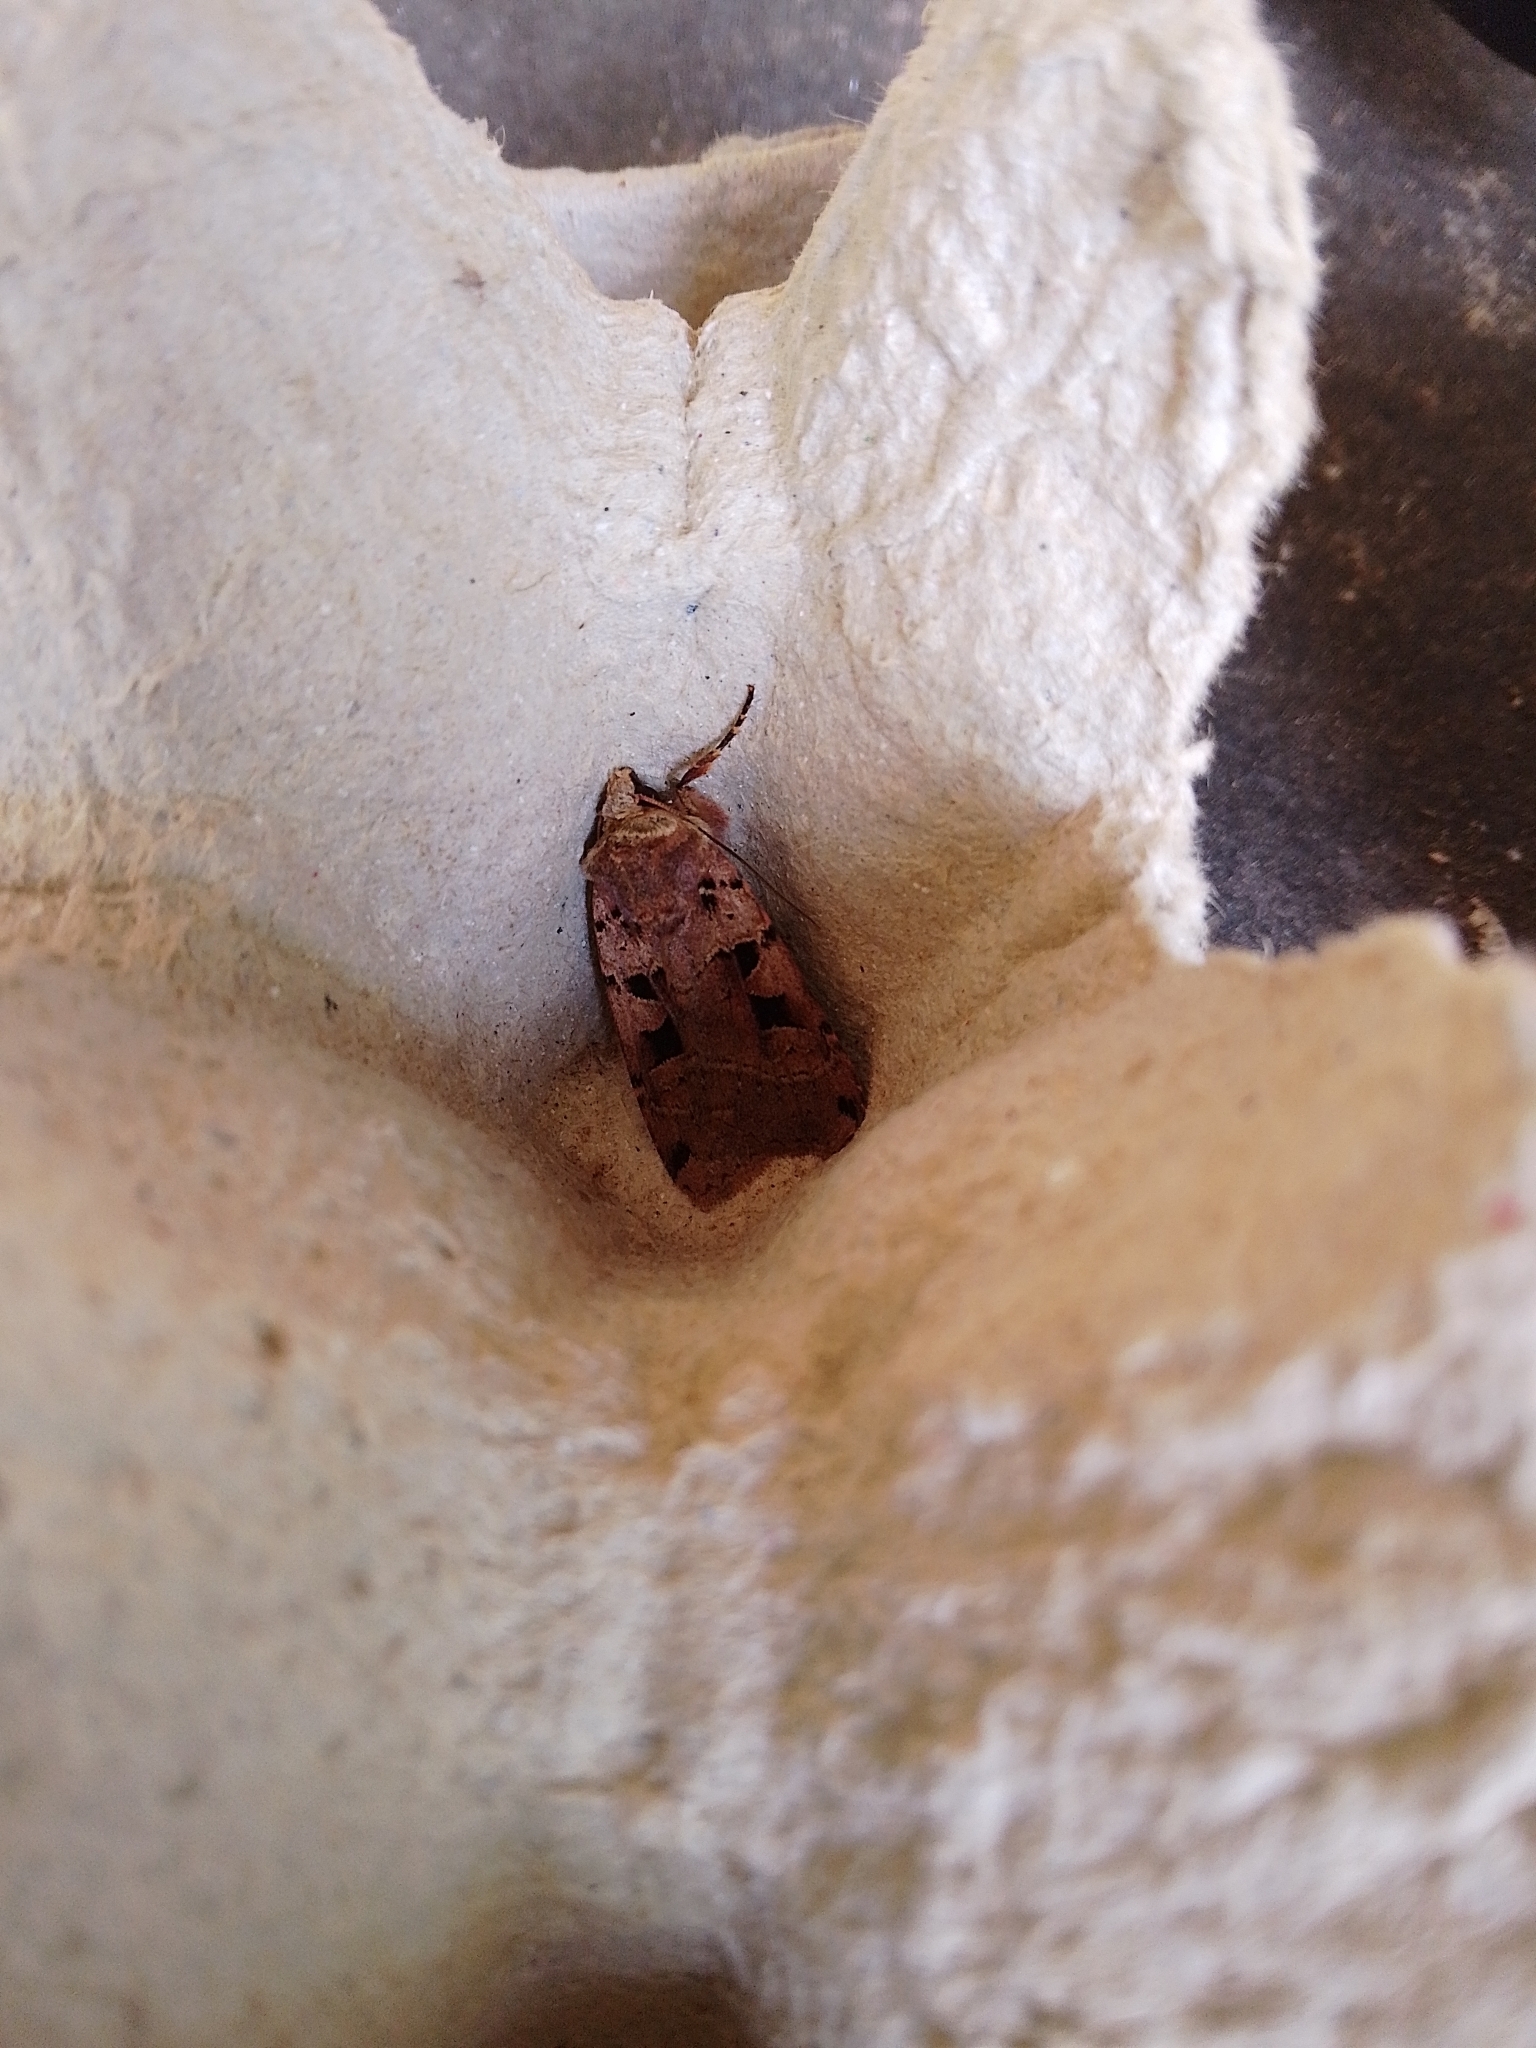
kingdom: Animalia
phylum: Arthropoda
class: Insecta
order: Lepidoptera
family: Noctuidae
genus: Xestia
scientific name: Xestia triangulum
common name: Double square-spot
